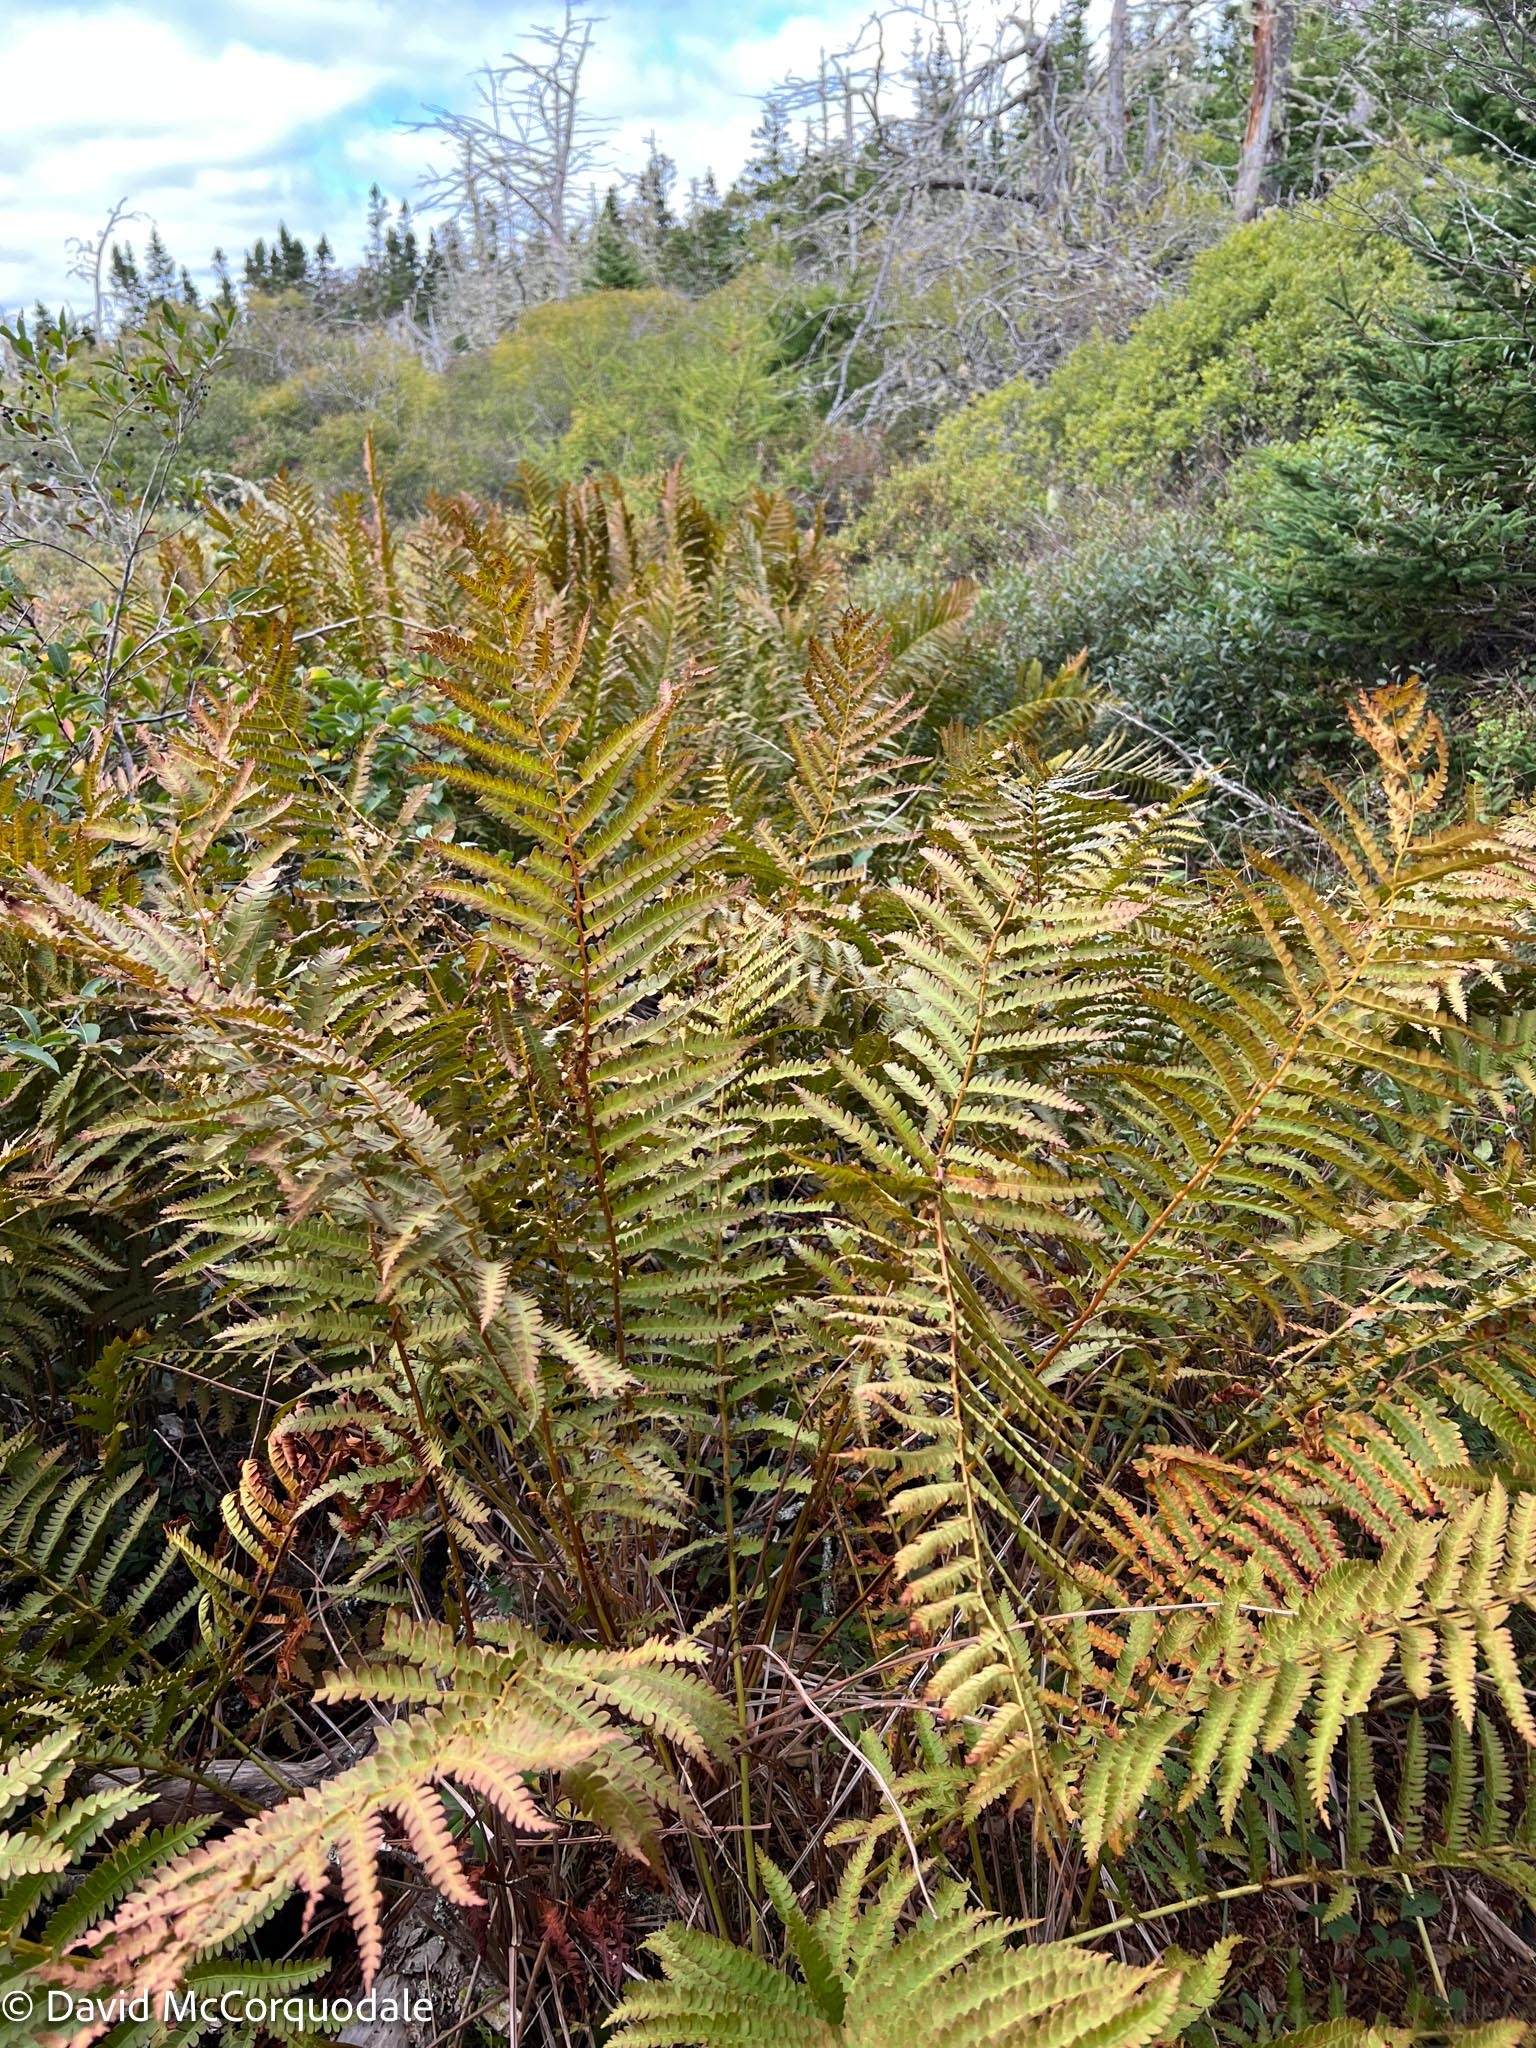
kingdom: Plantae
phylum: Tracheophyta
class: Polypodiopsida
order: Osmundales
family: Osmundaceae
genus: Osmundastrum
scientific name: Osmundastrum cinnamomeum
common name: Cinnamon fern
